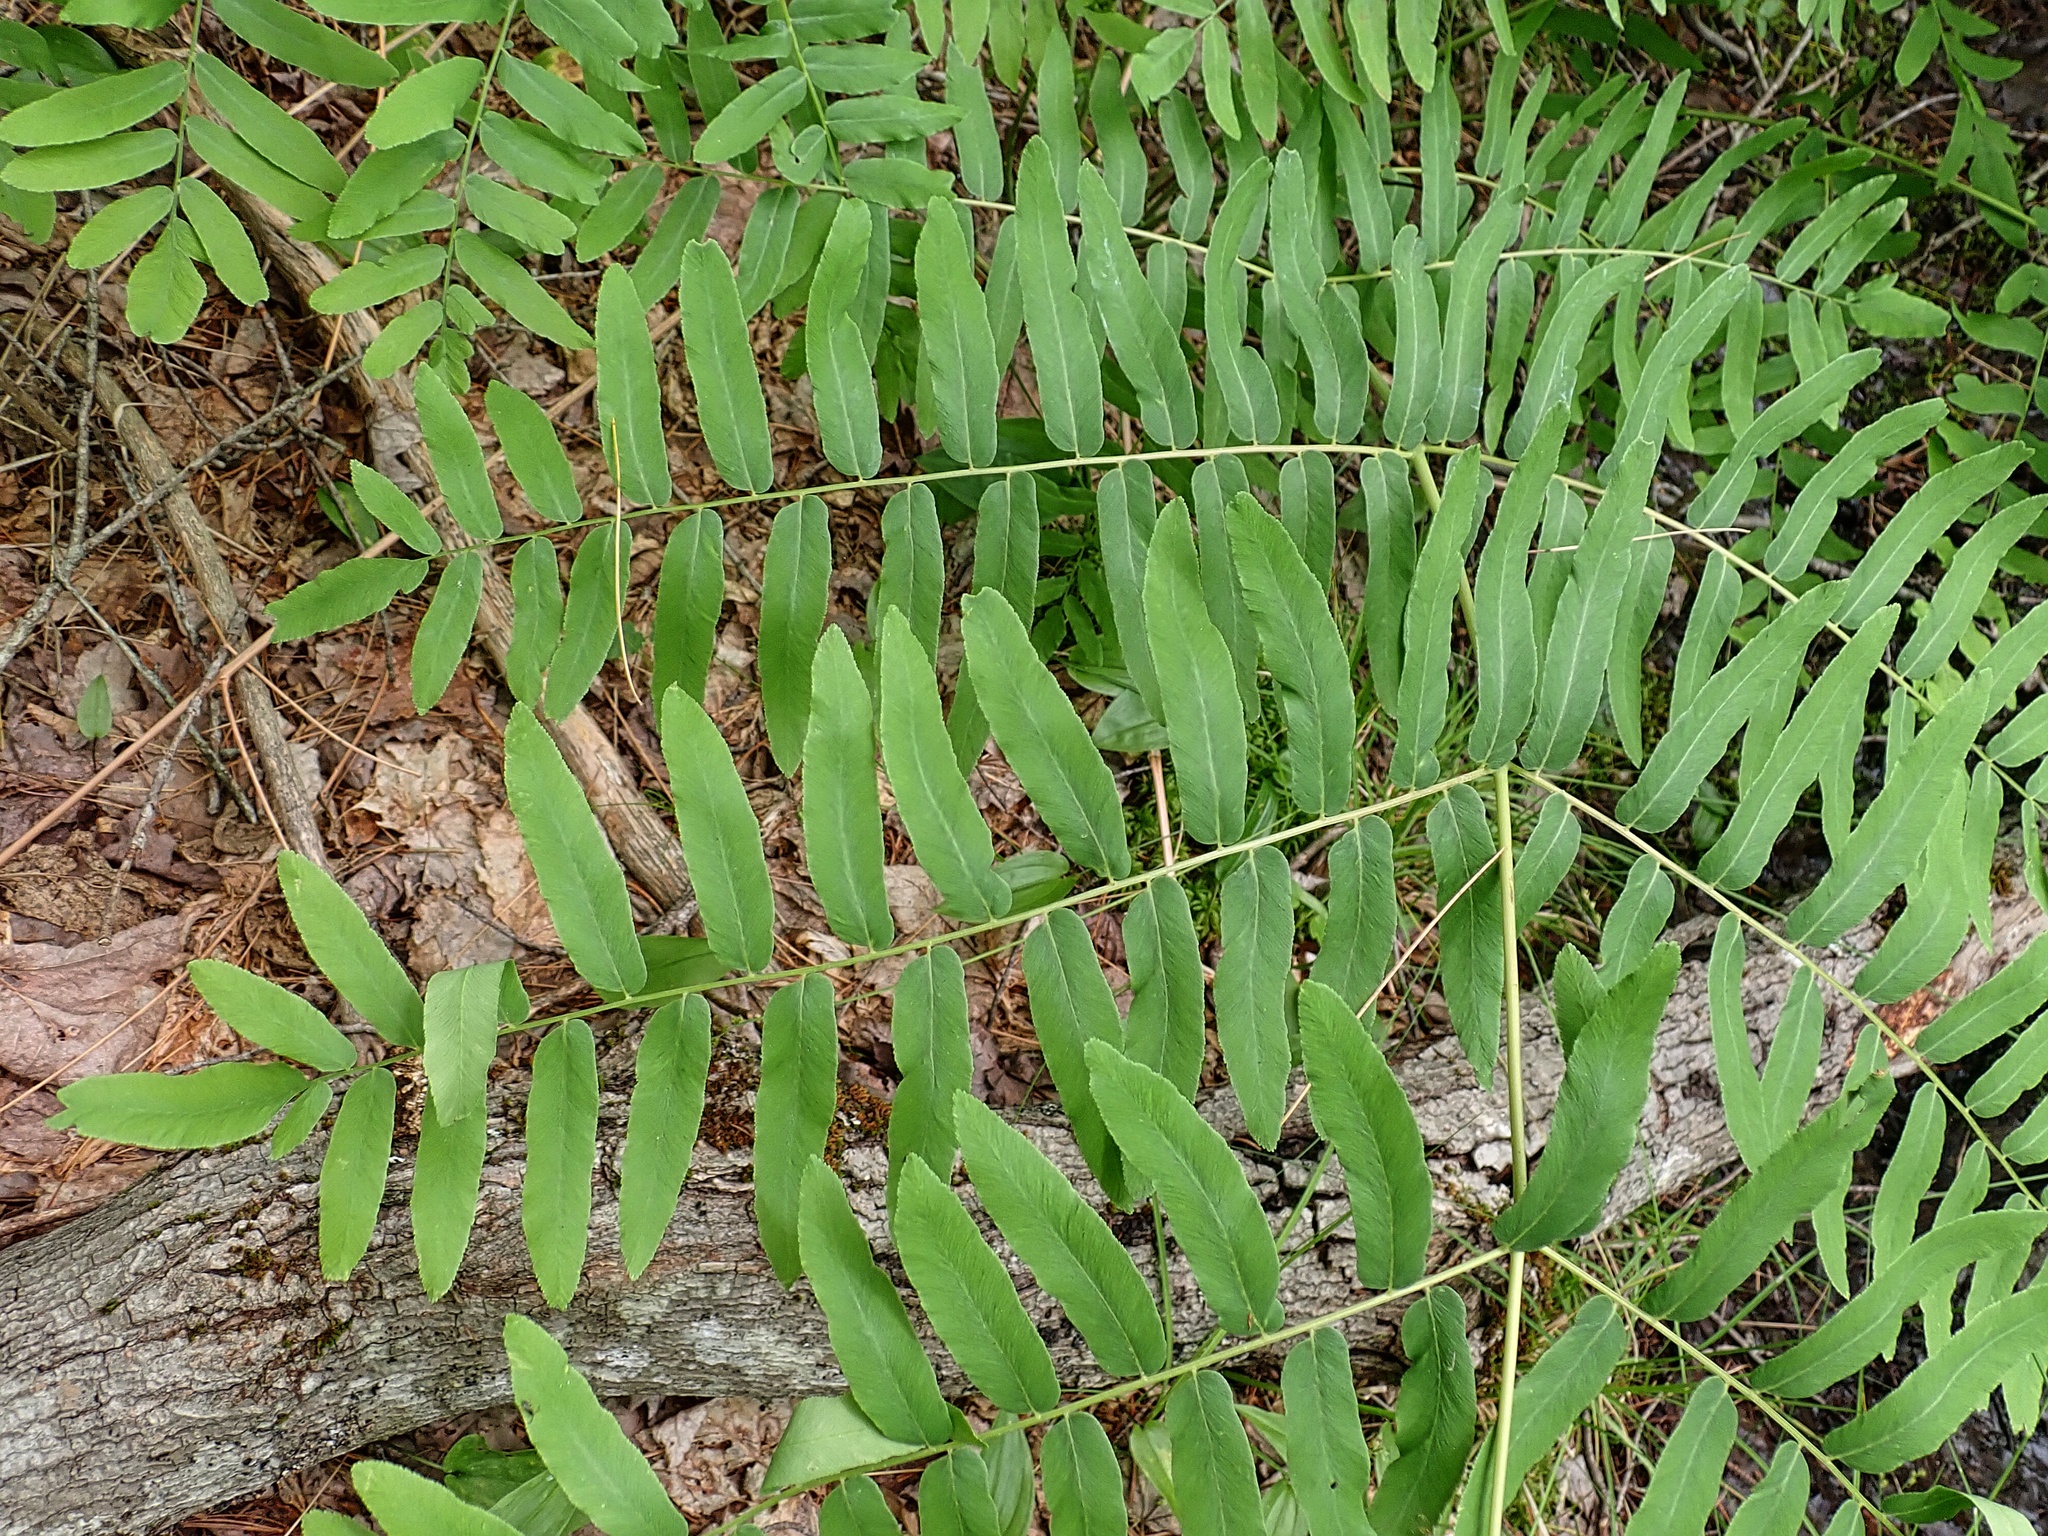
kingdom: Plantae
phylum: Tracheophyta
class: Polypodiopsida
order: Osmundales
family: Osmundaceae
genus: Osmunda
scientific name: Osmunda spectabilis
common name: American royal fern
